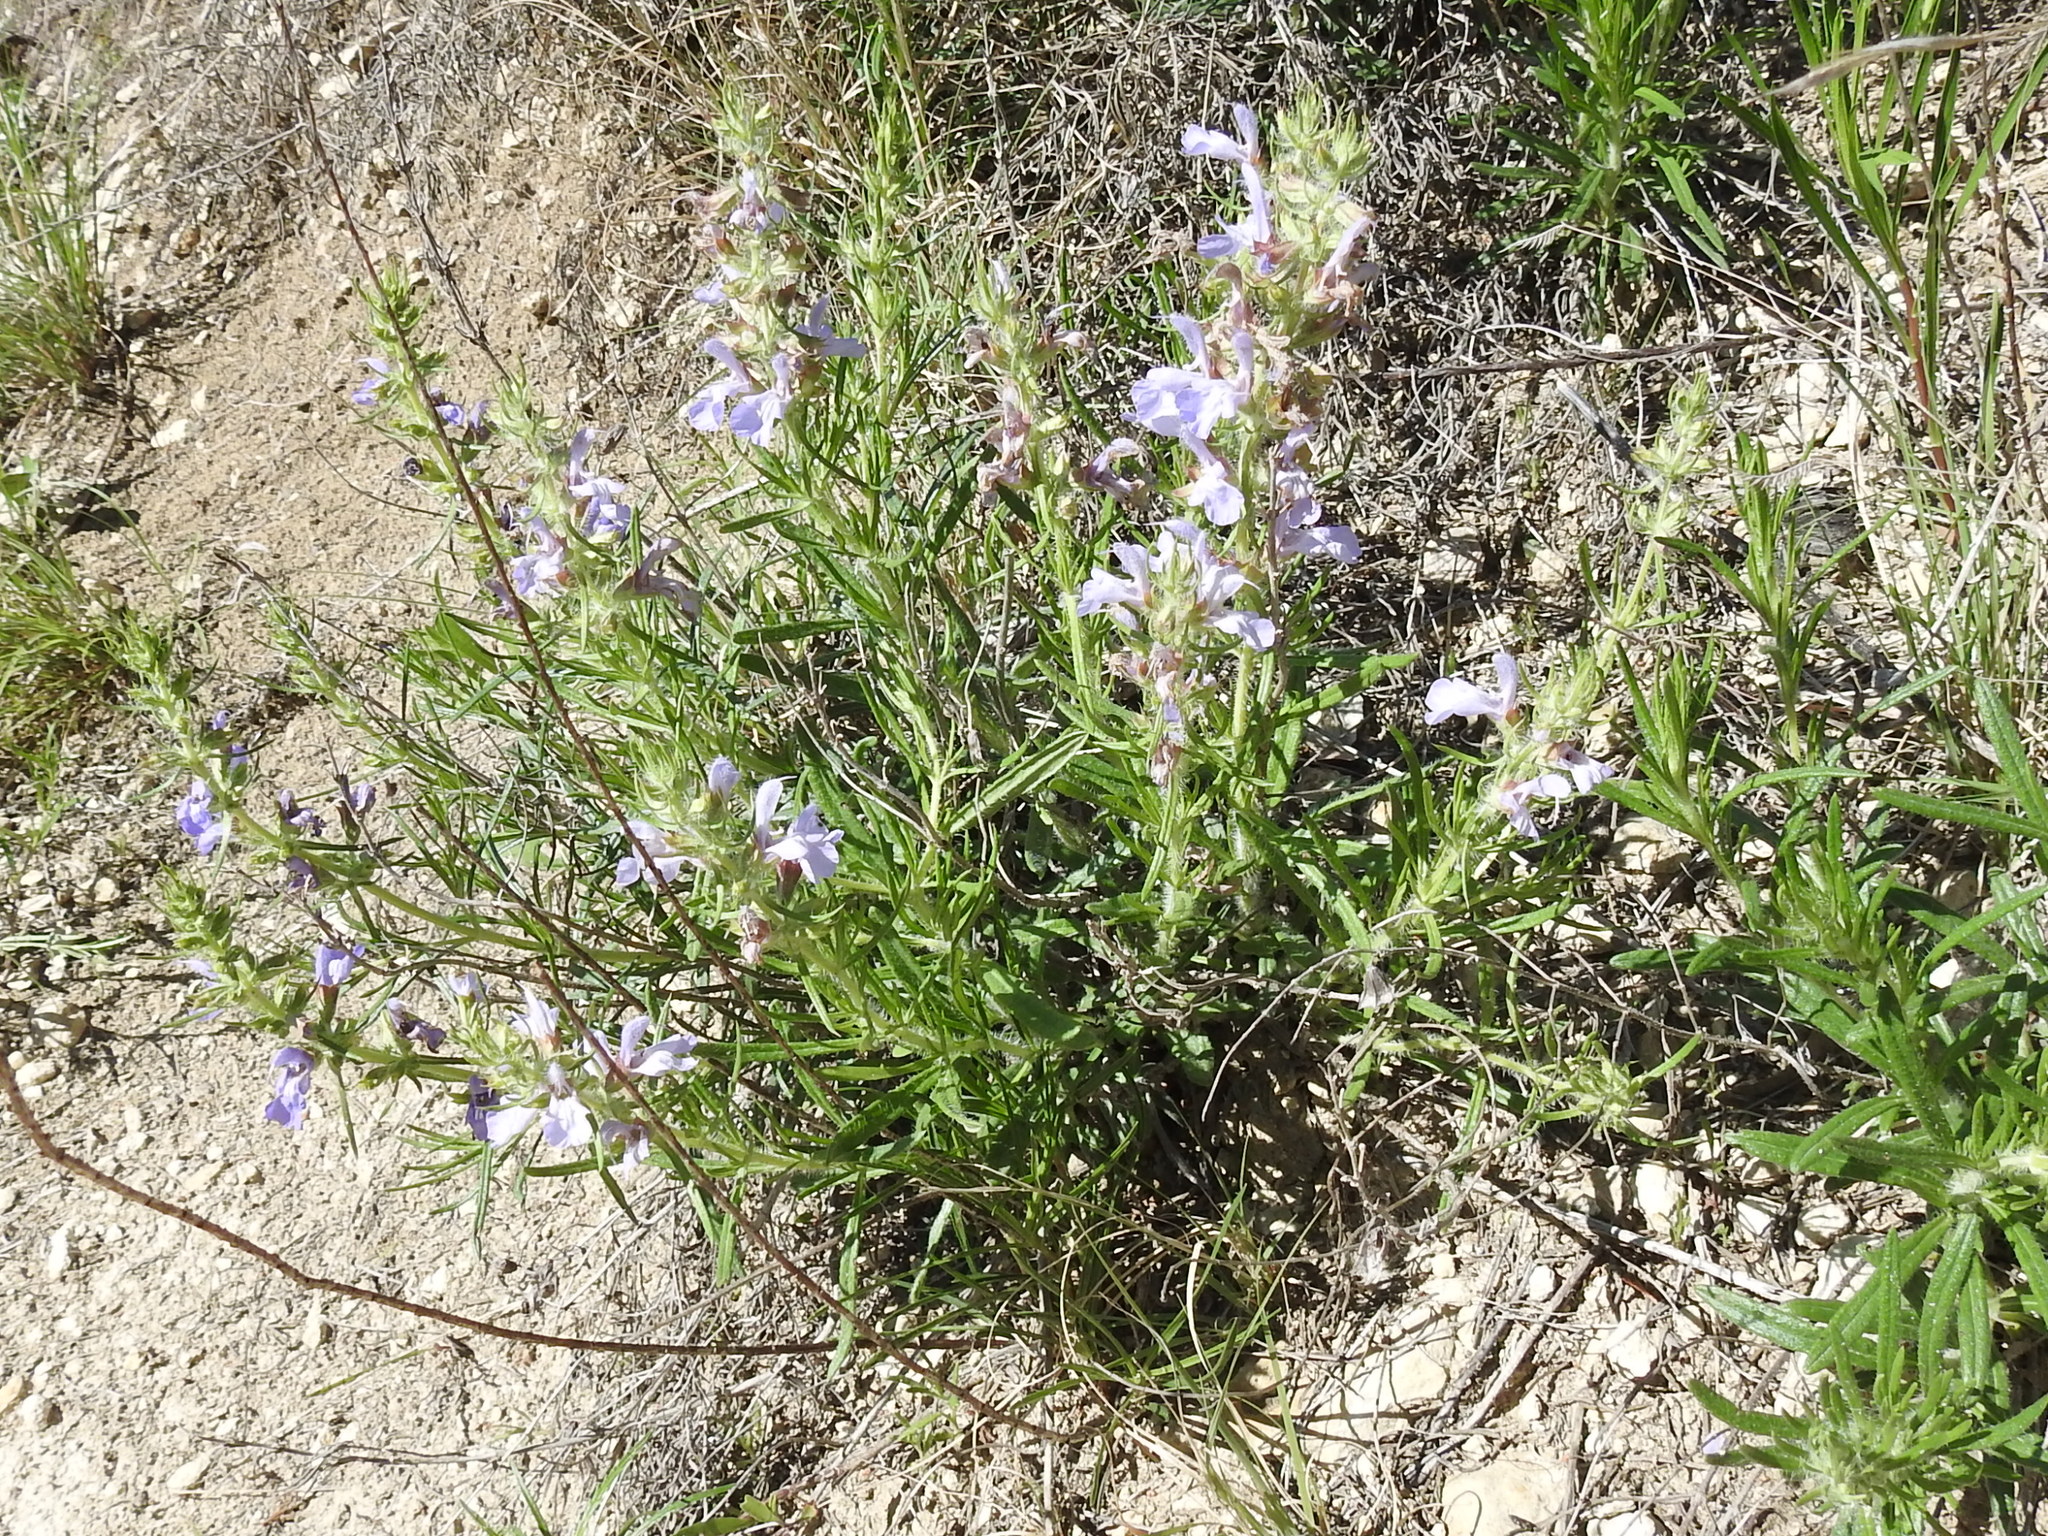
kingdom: Plantae
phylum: Tracheophyta
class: Magnoliopsida
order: Lamiales
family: Lamiaceae
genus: Salvia
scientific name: Salvia engelmannii
